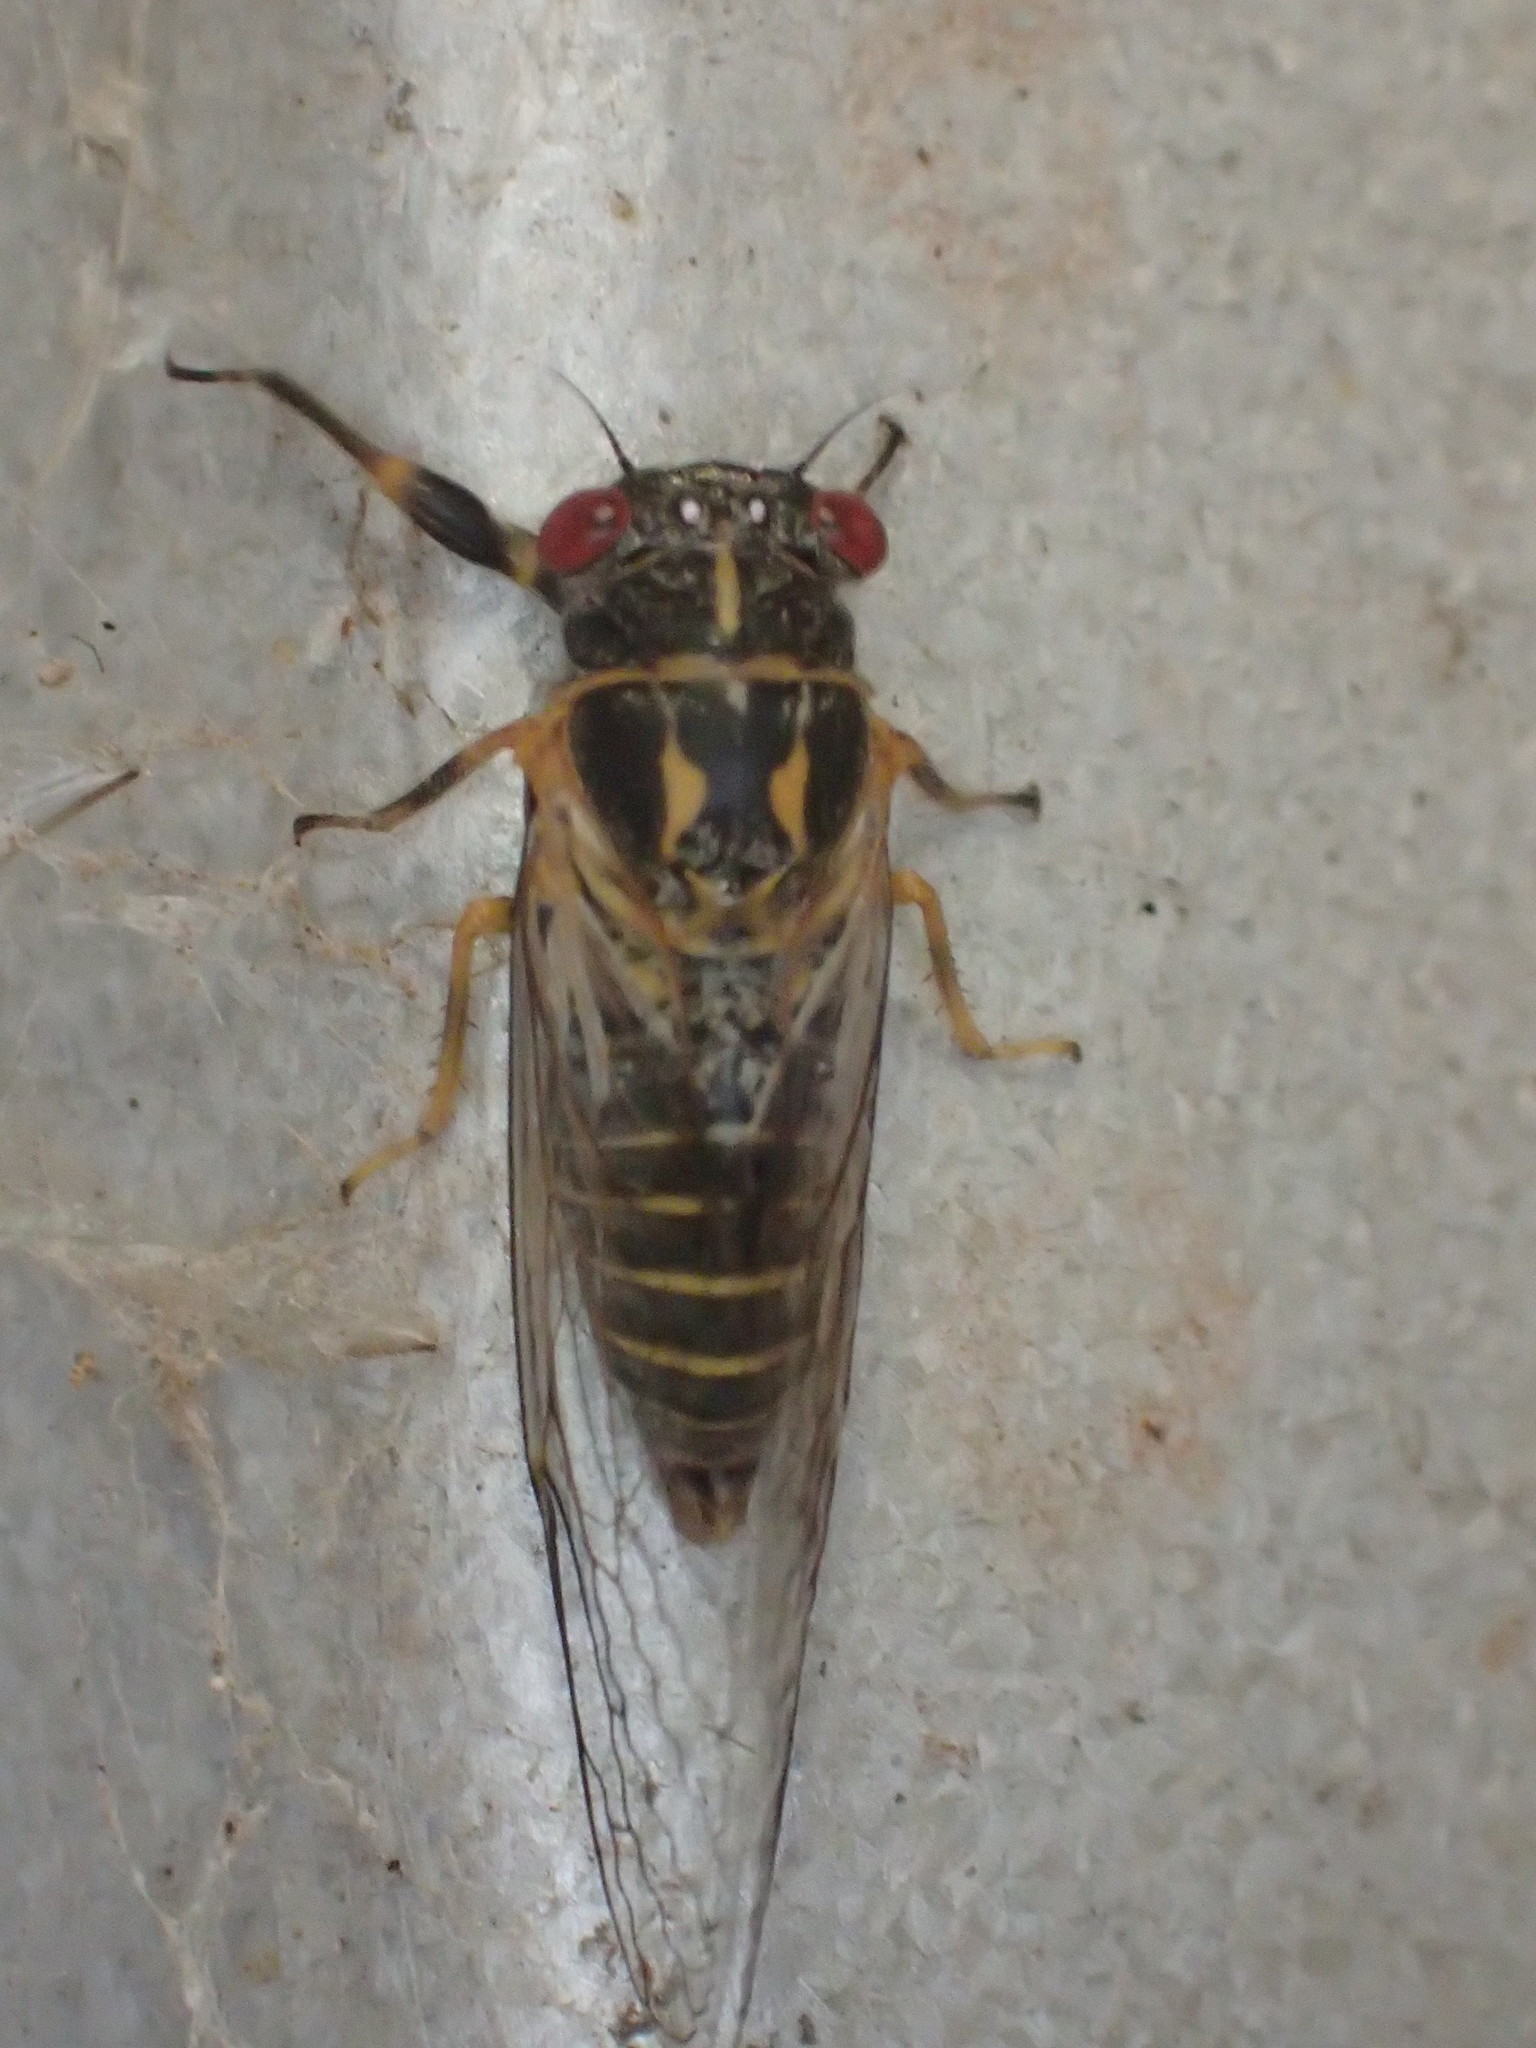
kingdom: Animalia
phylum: Arthropoda
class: Insecta
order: Hemiptera
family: Cicadidae
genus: Popplepsalta
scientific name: Popplepsalta corymbiae
